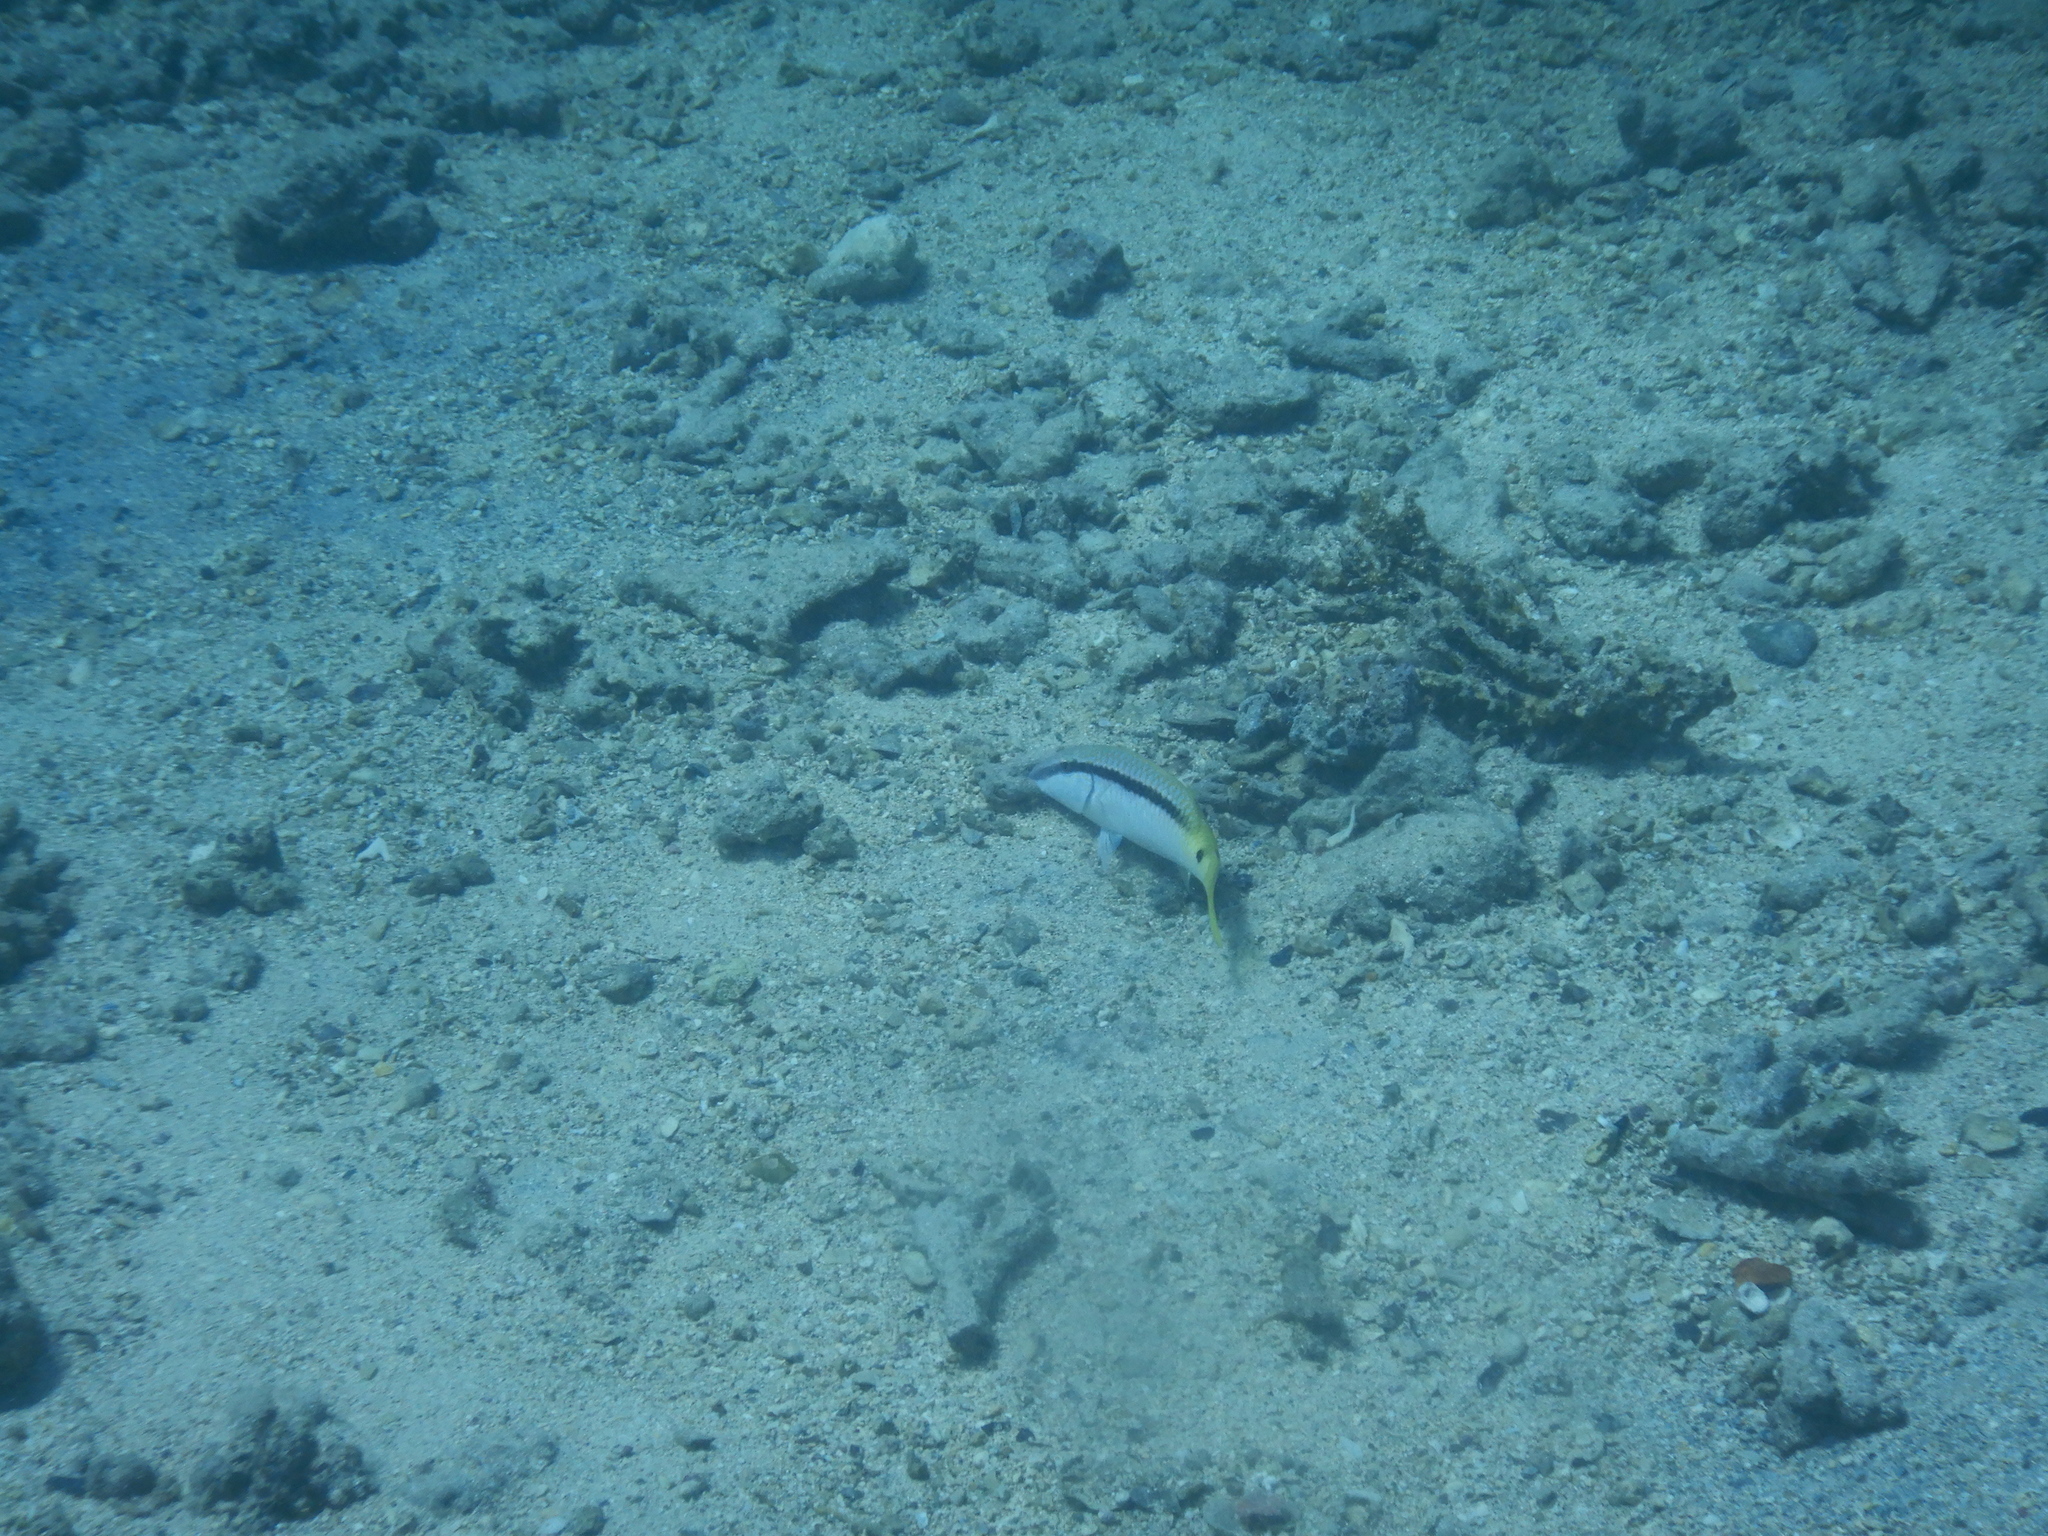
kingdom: Animalia
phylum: Chordata
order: Perciformes
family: Mullidae
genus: Parupeneus
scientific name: Parupeneus forsskali
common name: Red sea goatfish
